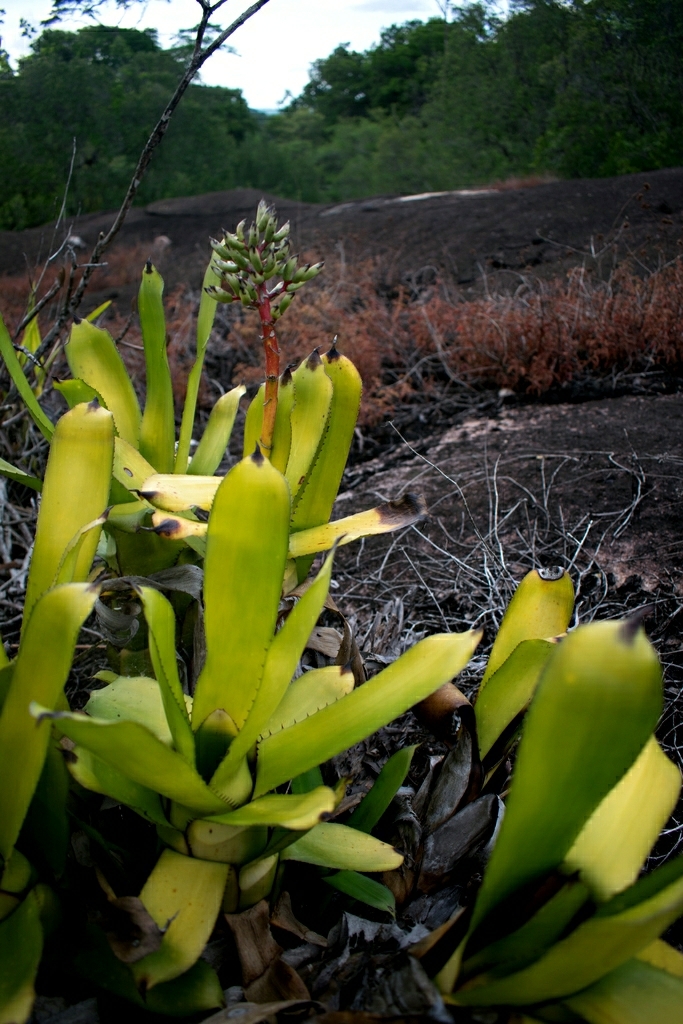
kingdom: Plantae
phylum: Tracheophyta
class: Liliopsida
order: Poales
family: Bromeliaceae
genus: Aechmea
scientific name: Aechmea melinonii
